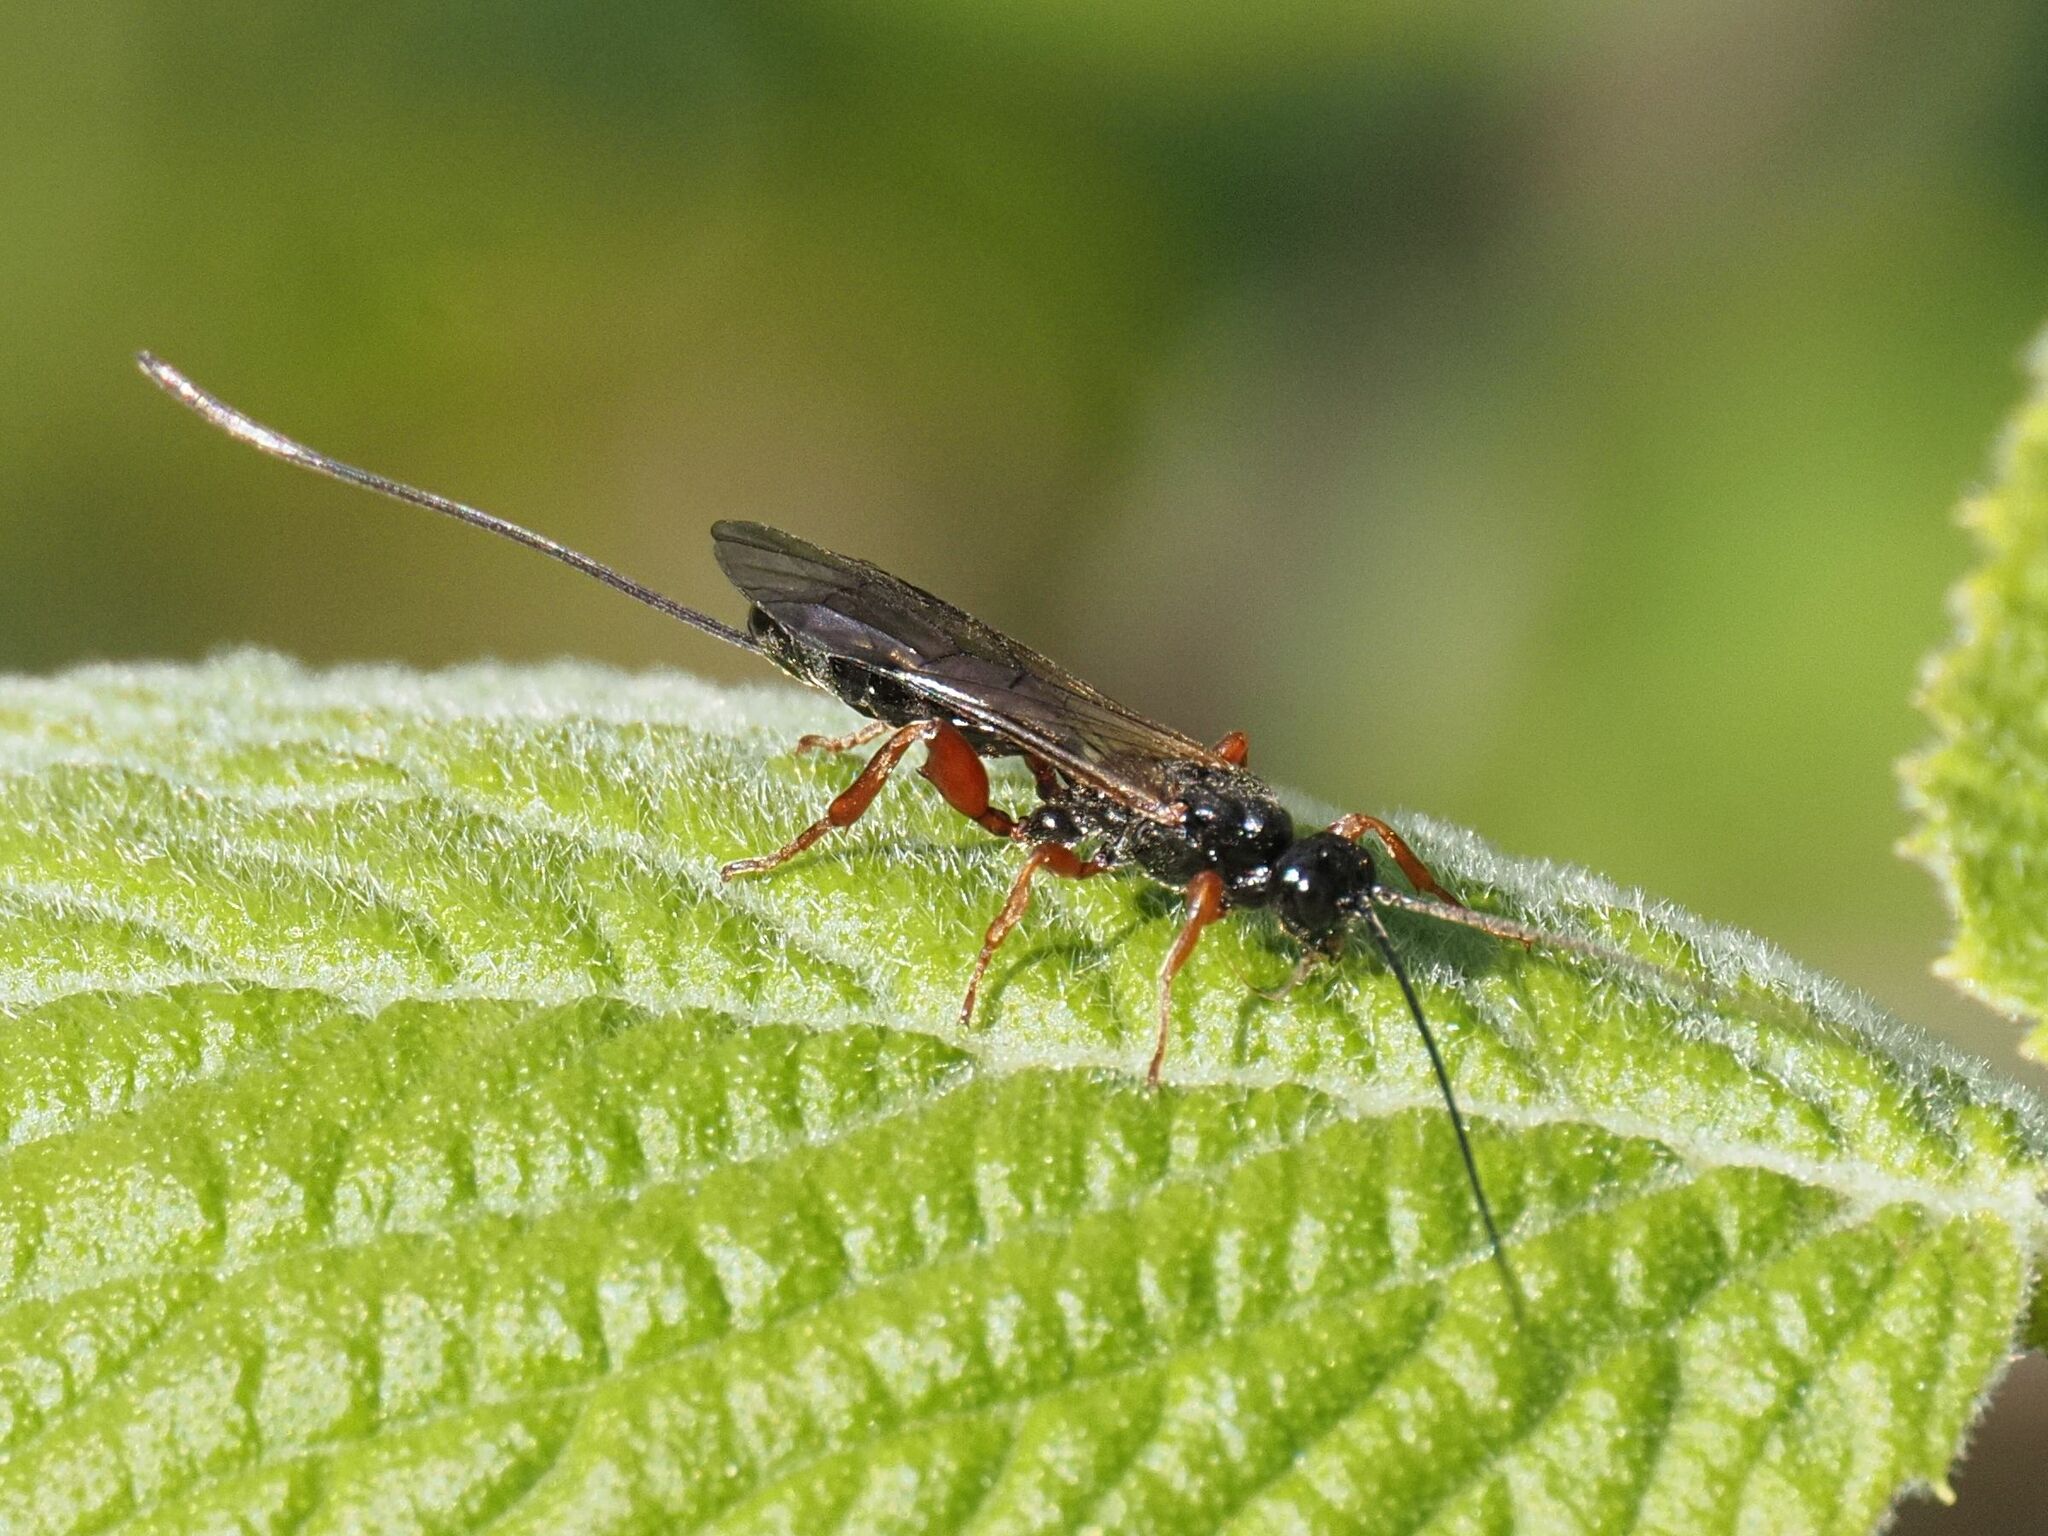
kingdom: Animalia
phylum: Arthropoda
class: Insecta
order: Hymenoptera
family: Ichneumonidae
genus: Odontocolon
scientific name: Odontocolon dentipes
